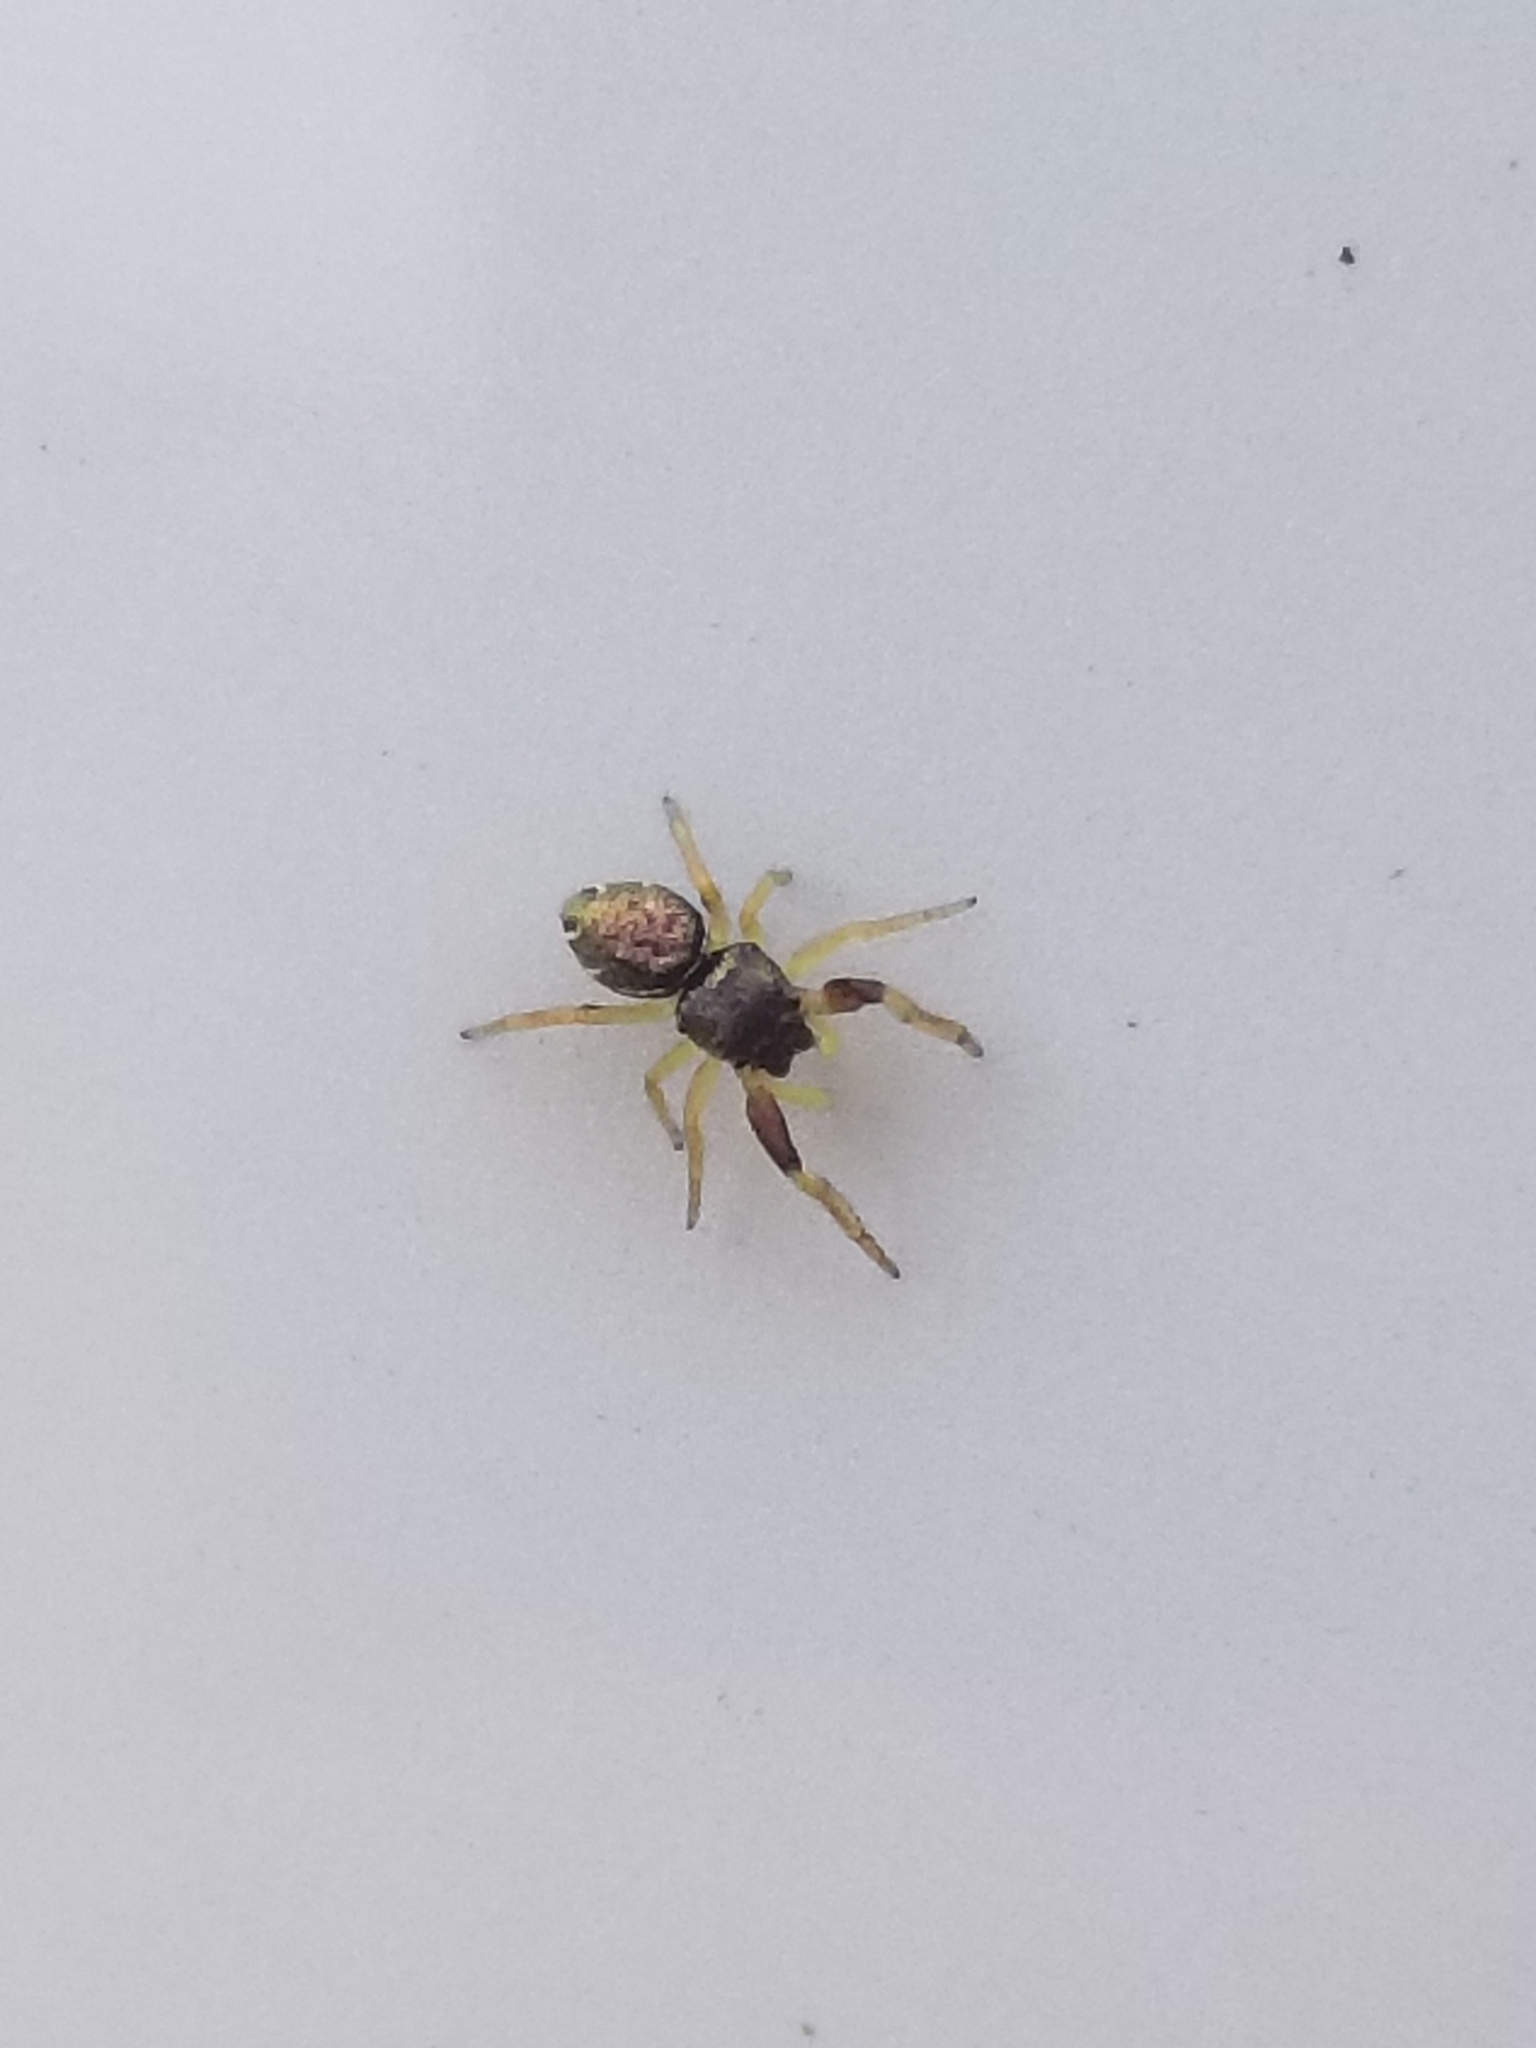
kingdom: Animalia
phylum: Arthropoda
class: Arachnida
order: Araneae
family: Salticidae
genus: Zygoballus
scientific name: Zygoballus rufipes
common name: Jumping spiders
